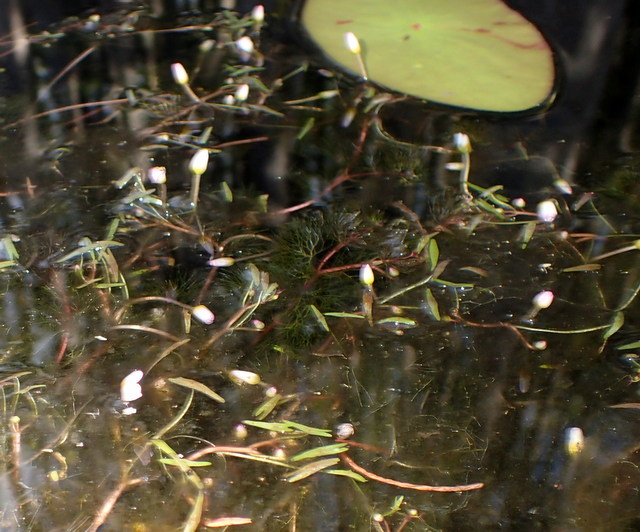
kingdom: Plantae
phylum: Tracheophyta
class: Magnoliopsida
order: Nymphaeales
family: Cabombaceae
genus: Cabomba
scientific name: Cabomba caroliniana
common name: Fanwort
